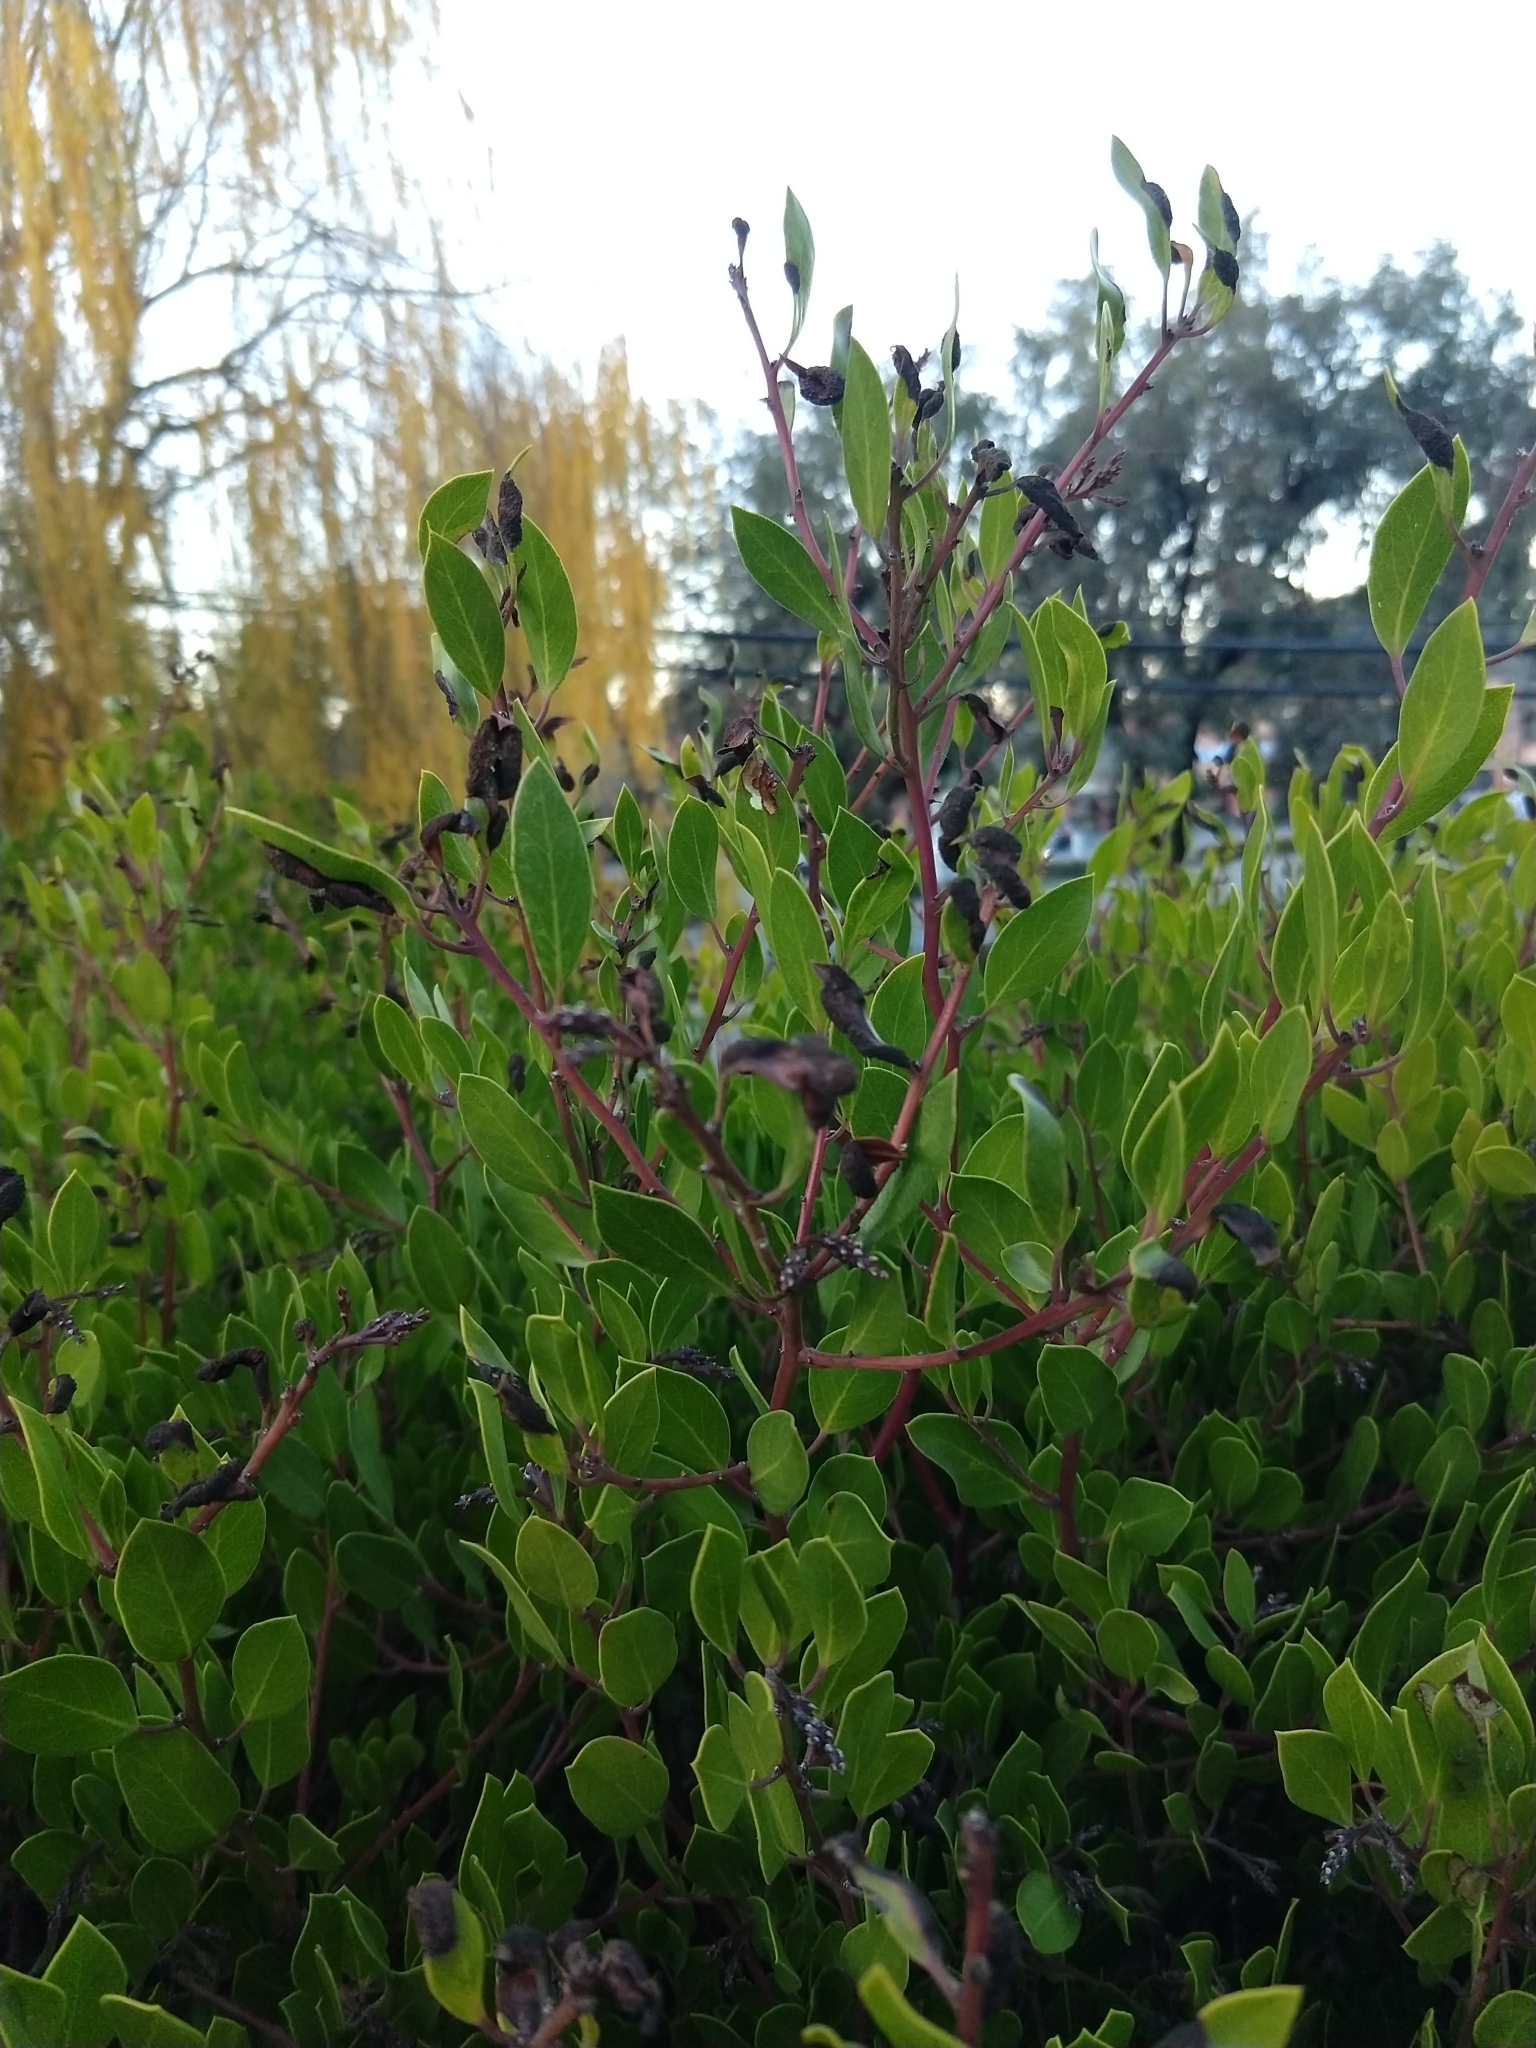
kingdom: Animalia
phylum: Arthropoda
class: Insecta
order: Hemiptera
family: Aphididae
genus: Tamalia
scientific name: Tamalia coweni
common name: Manzanita leafgall aphid
